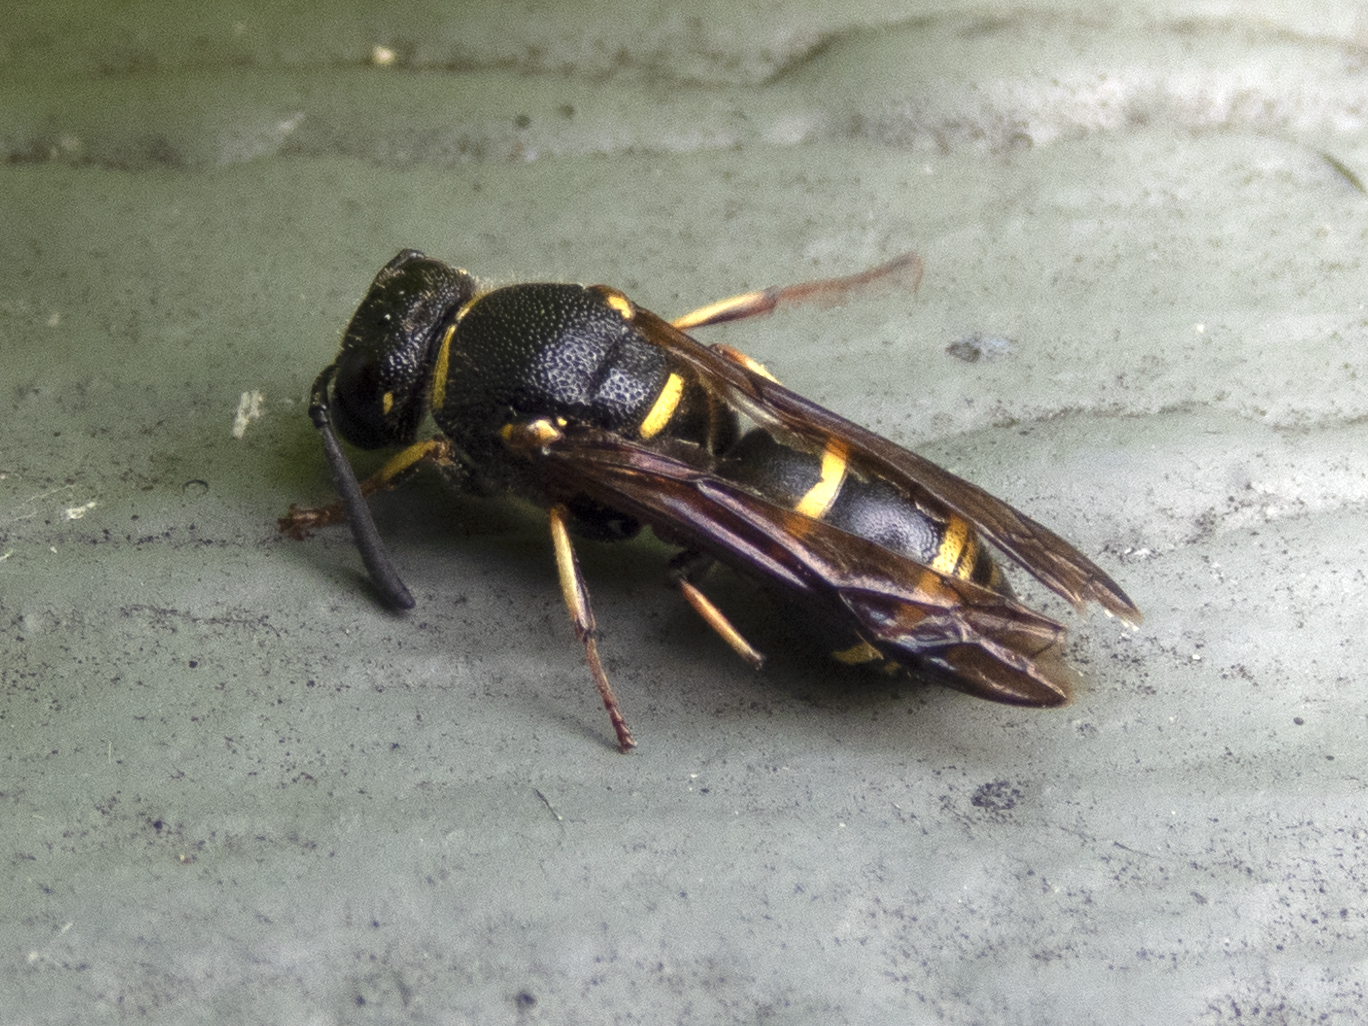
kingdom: Animalia
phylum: Arthropoda
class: Insecta
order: Hymenoptera
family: Eumenidae
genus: Euodynerus
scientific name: Euodynerus foraminatus
